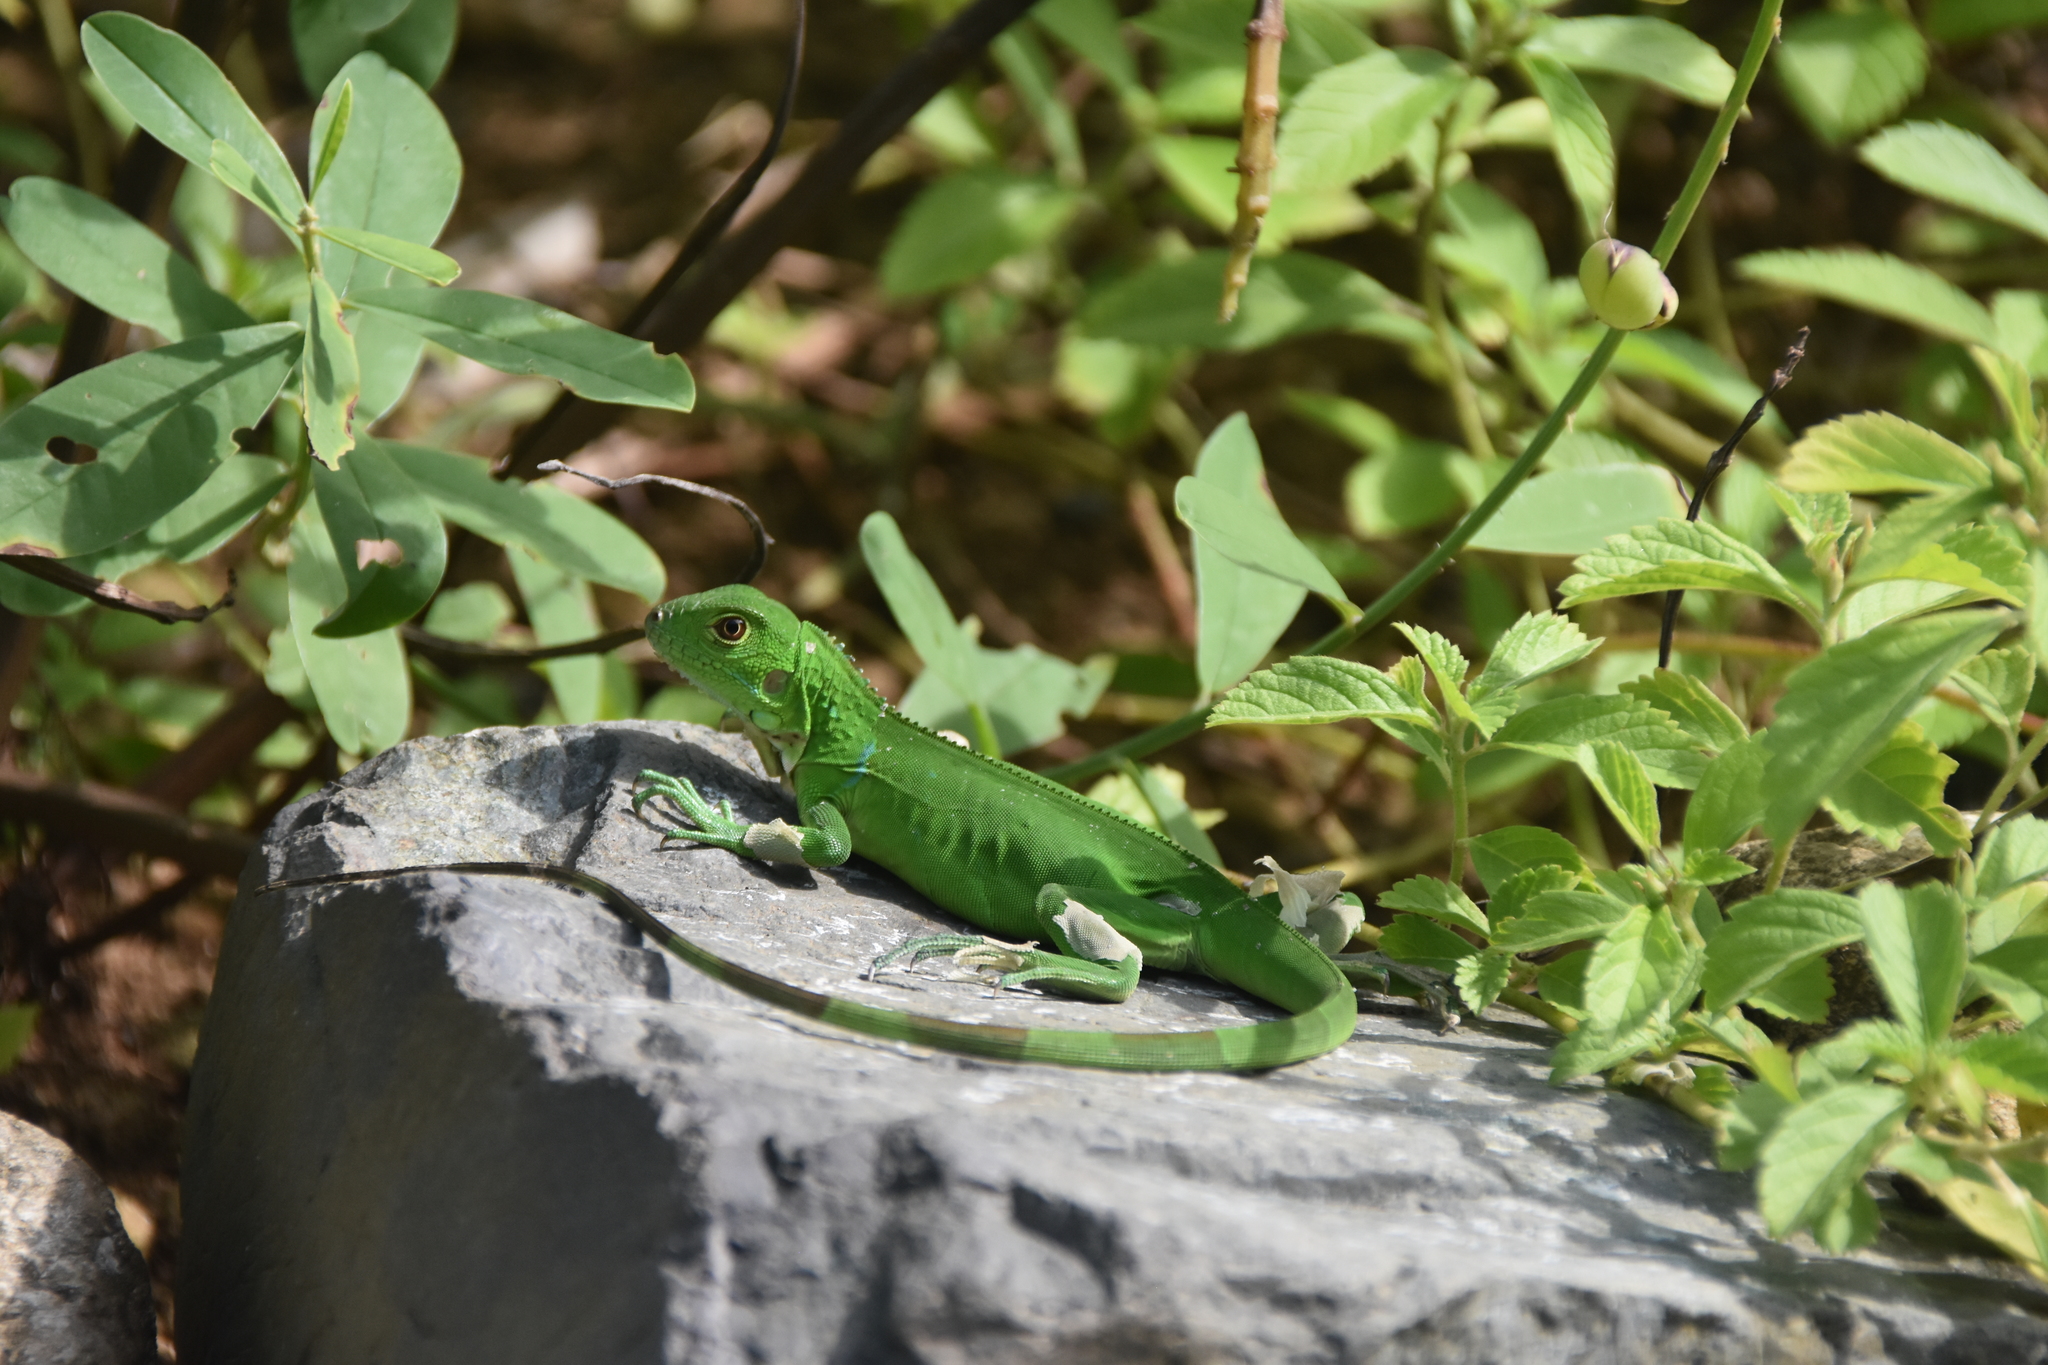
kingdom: Animalia
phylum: Chordata
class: Squamata
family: Iguanidae
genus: Iguana
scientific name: Iguana iguana
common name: Green iguana
